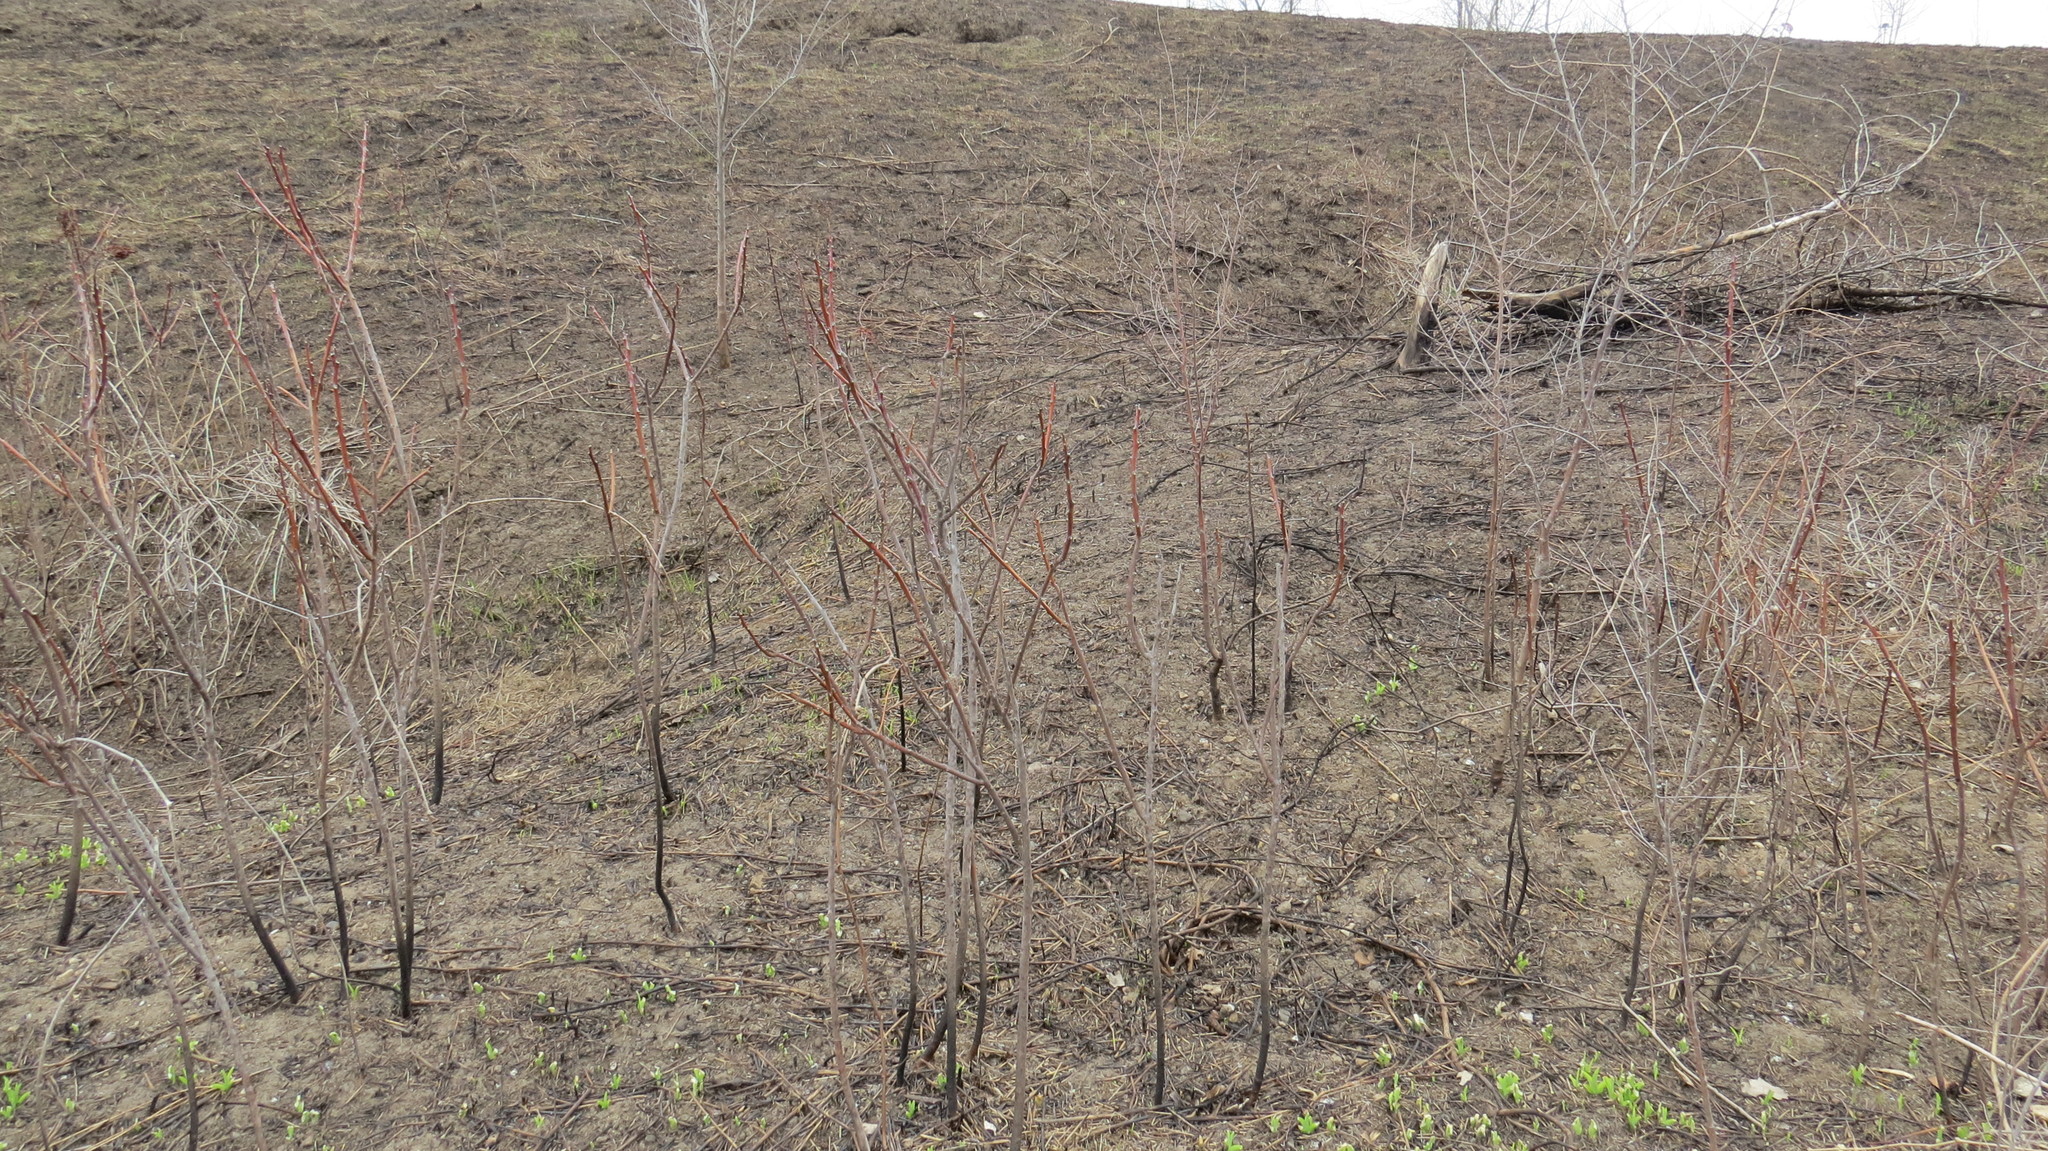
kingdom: Plantae
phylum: Tracheophyta
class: Magnoliopsida
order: Sapindales
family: Anacardiaceae
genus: Rhus
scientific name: Rhus glabra
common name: Scarlet sumac
